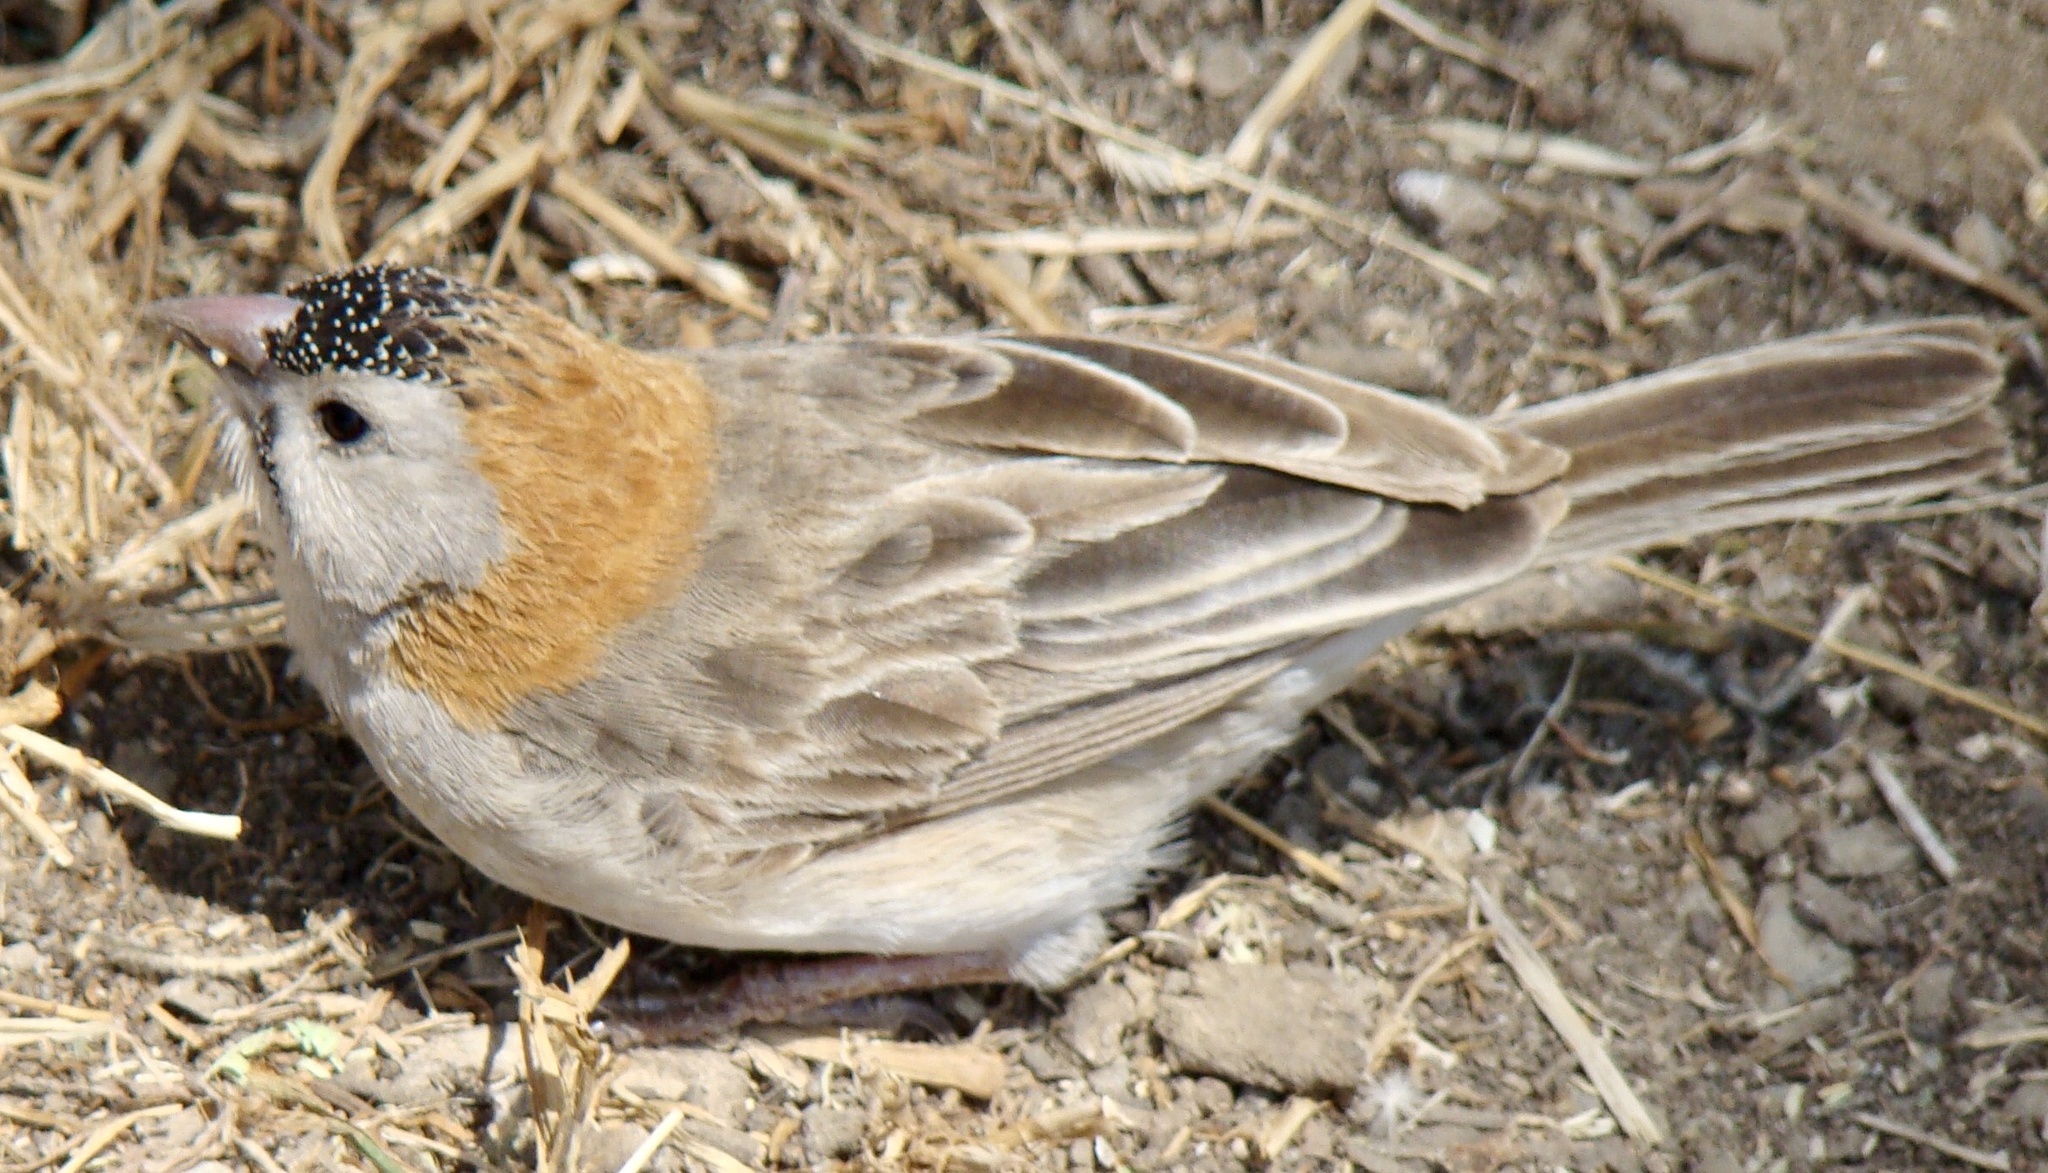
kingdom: Animalia
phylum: Chordata
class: Aves
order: Passeriformes
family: Ploceidae
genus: Sporopipes
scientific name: Sporopipes frontalis
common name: Speckle-fronted weaver
